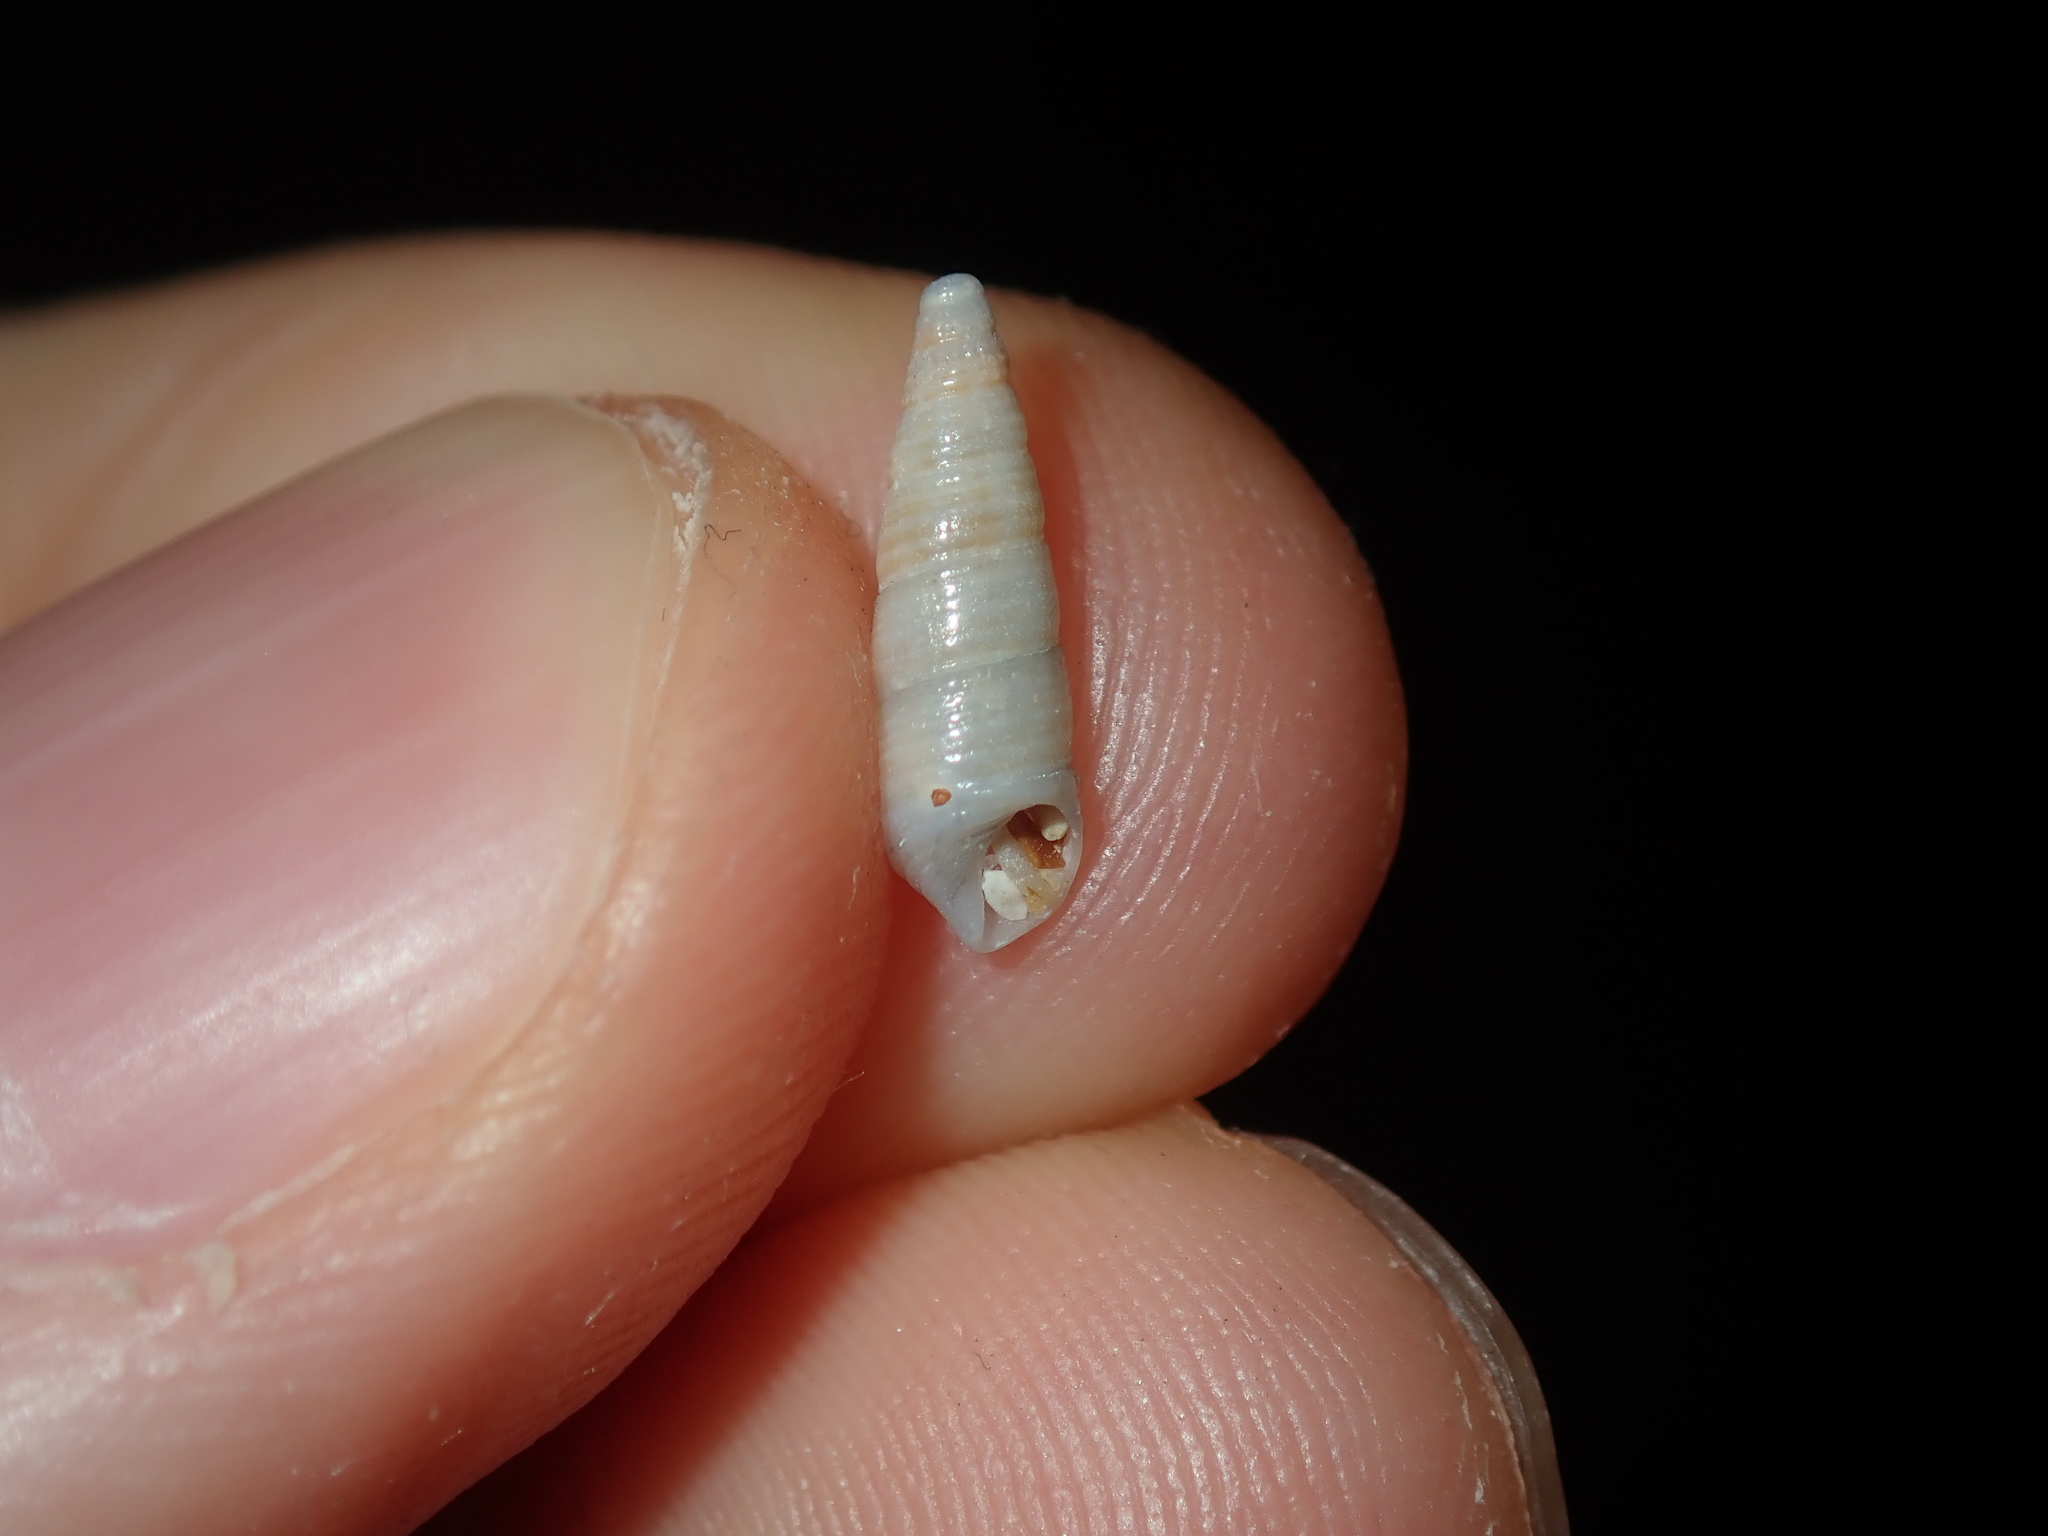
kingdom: Animalia
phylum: Mollusca
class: Gastropoda
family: Cerithiidae
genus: Cacozeliana
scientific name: Cacozeliana granarium
